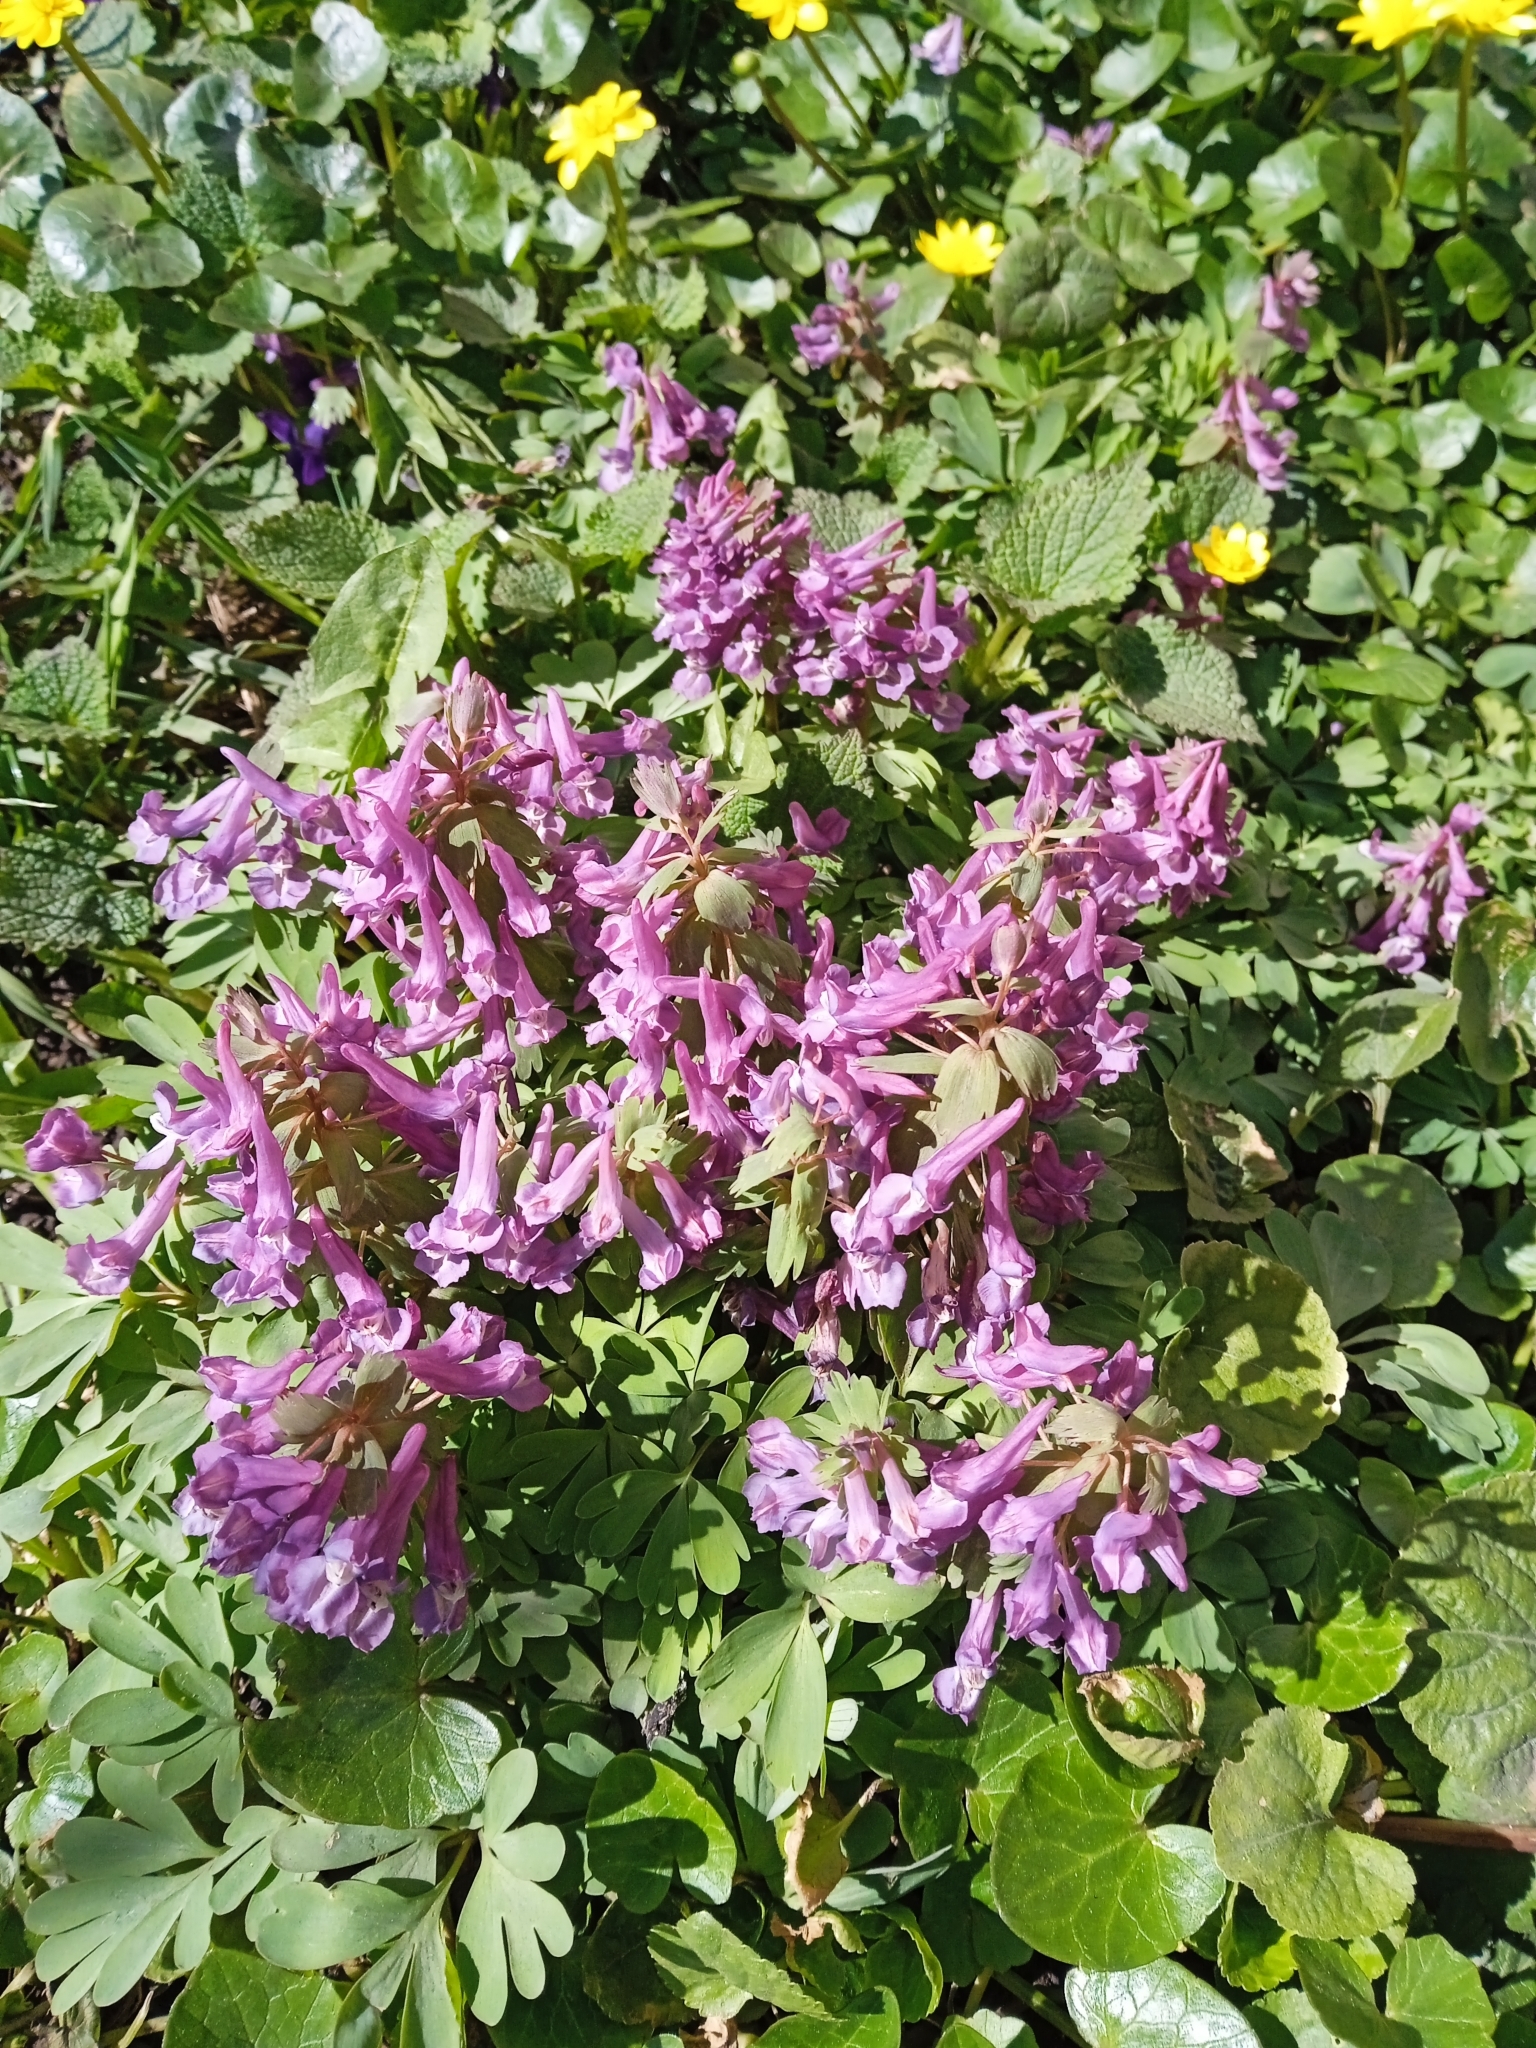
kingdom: Plantae
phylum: Tracheophyta
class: Magnoliopsida
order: Ranunculales
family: Papaveraceae
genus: Corydalis
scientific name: Corydalis solida
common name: Bird-in-a-bush
